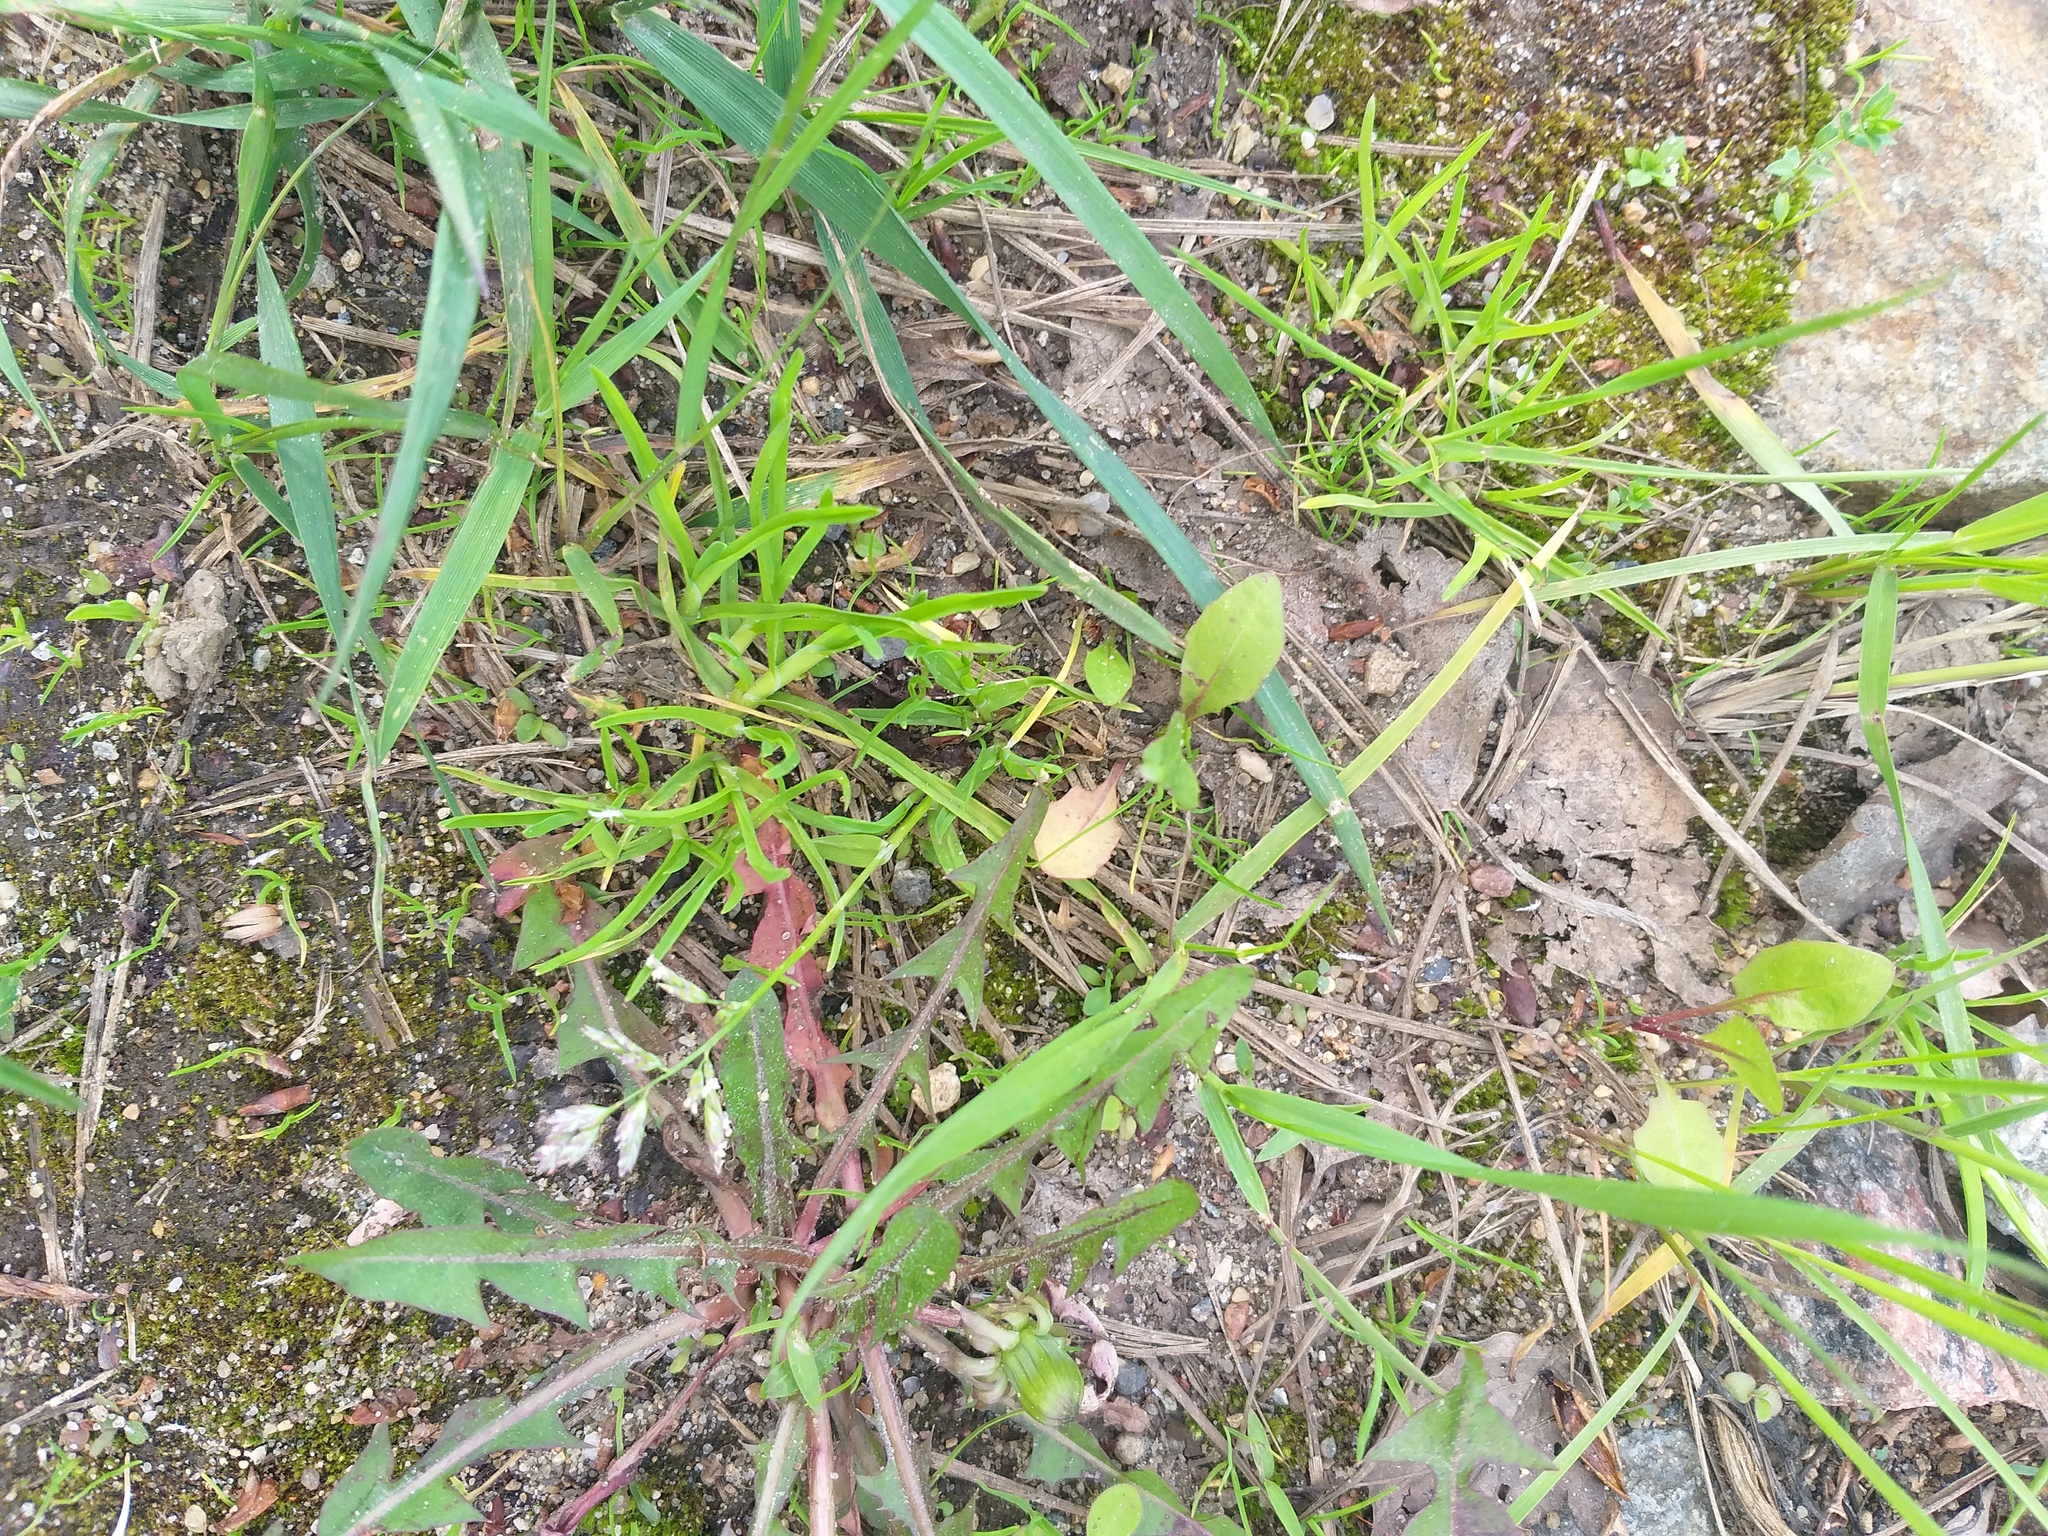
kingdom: Plantae
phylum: Tracheophyta
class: Liliopsida
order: Poales
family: Poaceae
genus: Poa
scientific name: Poa annua
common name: Annual bluegrass
